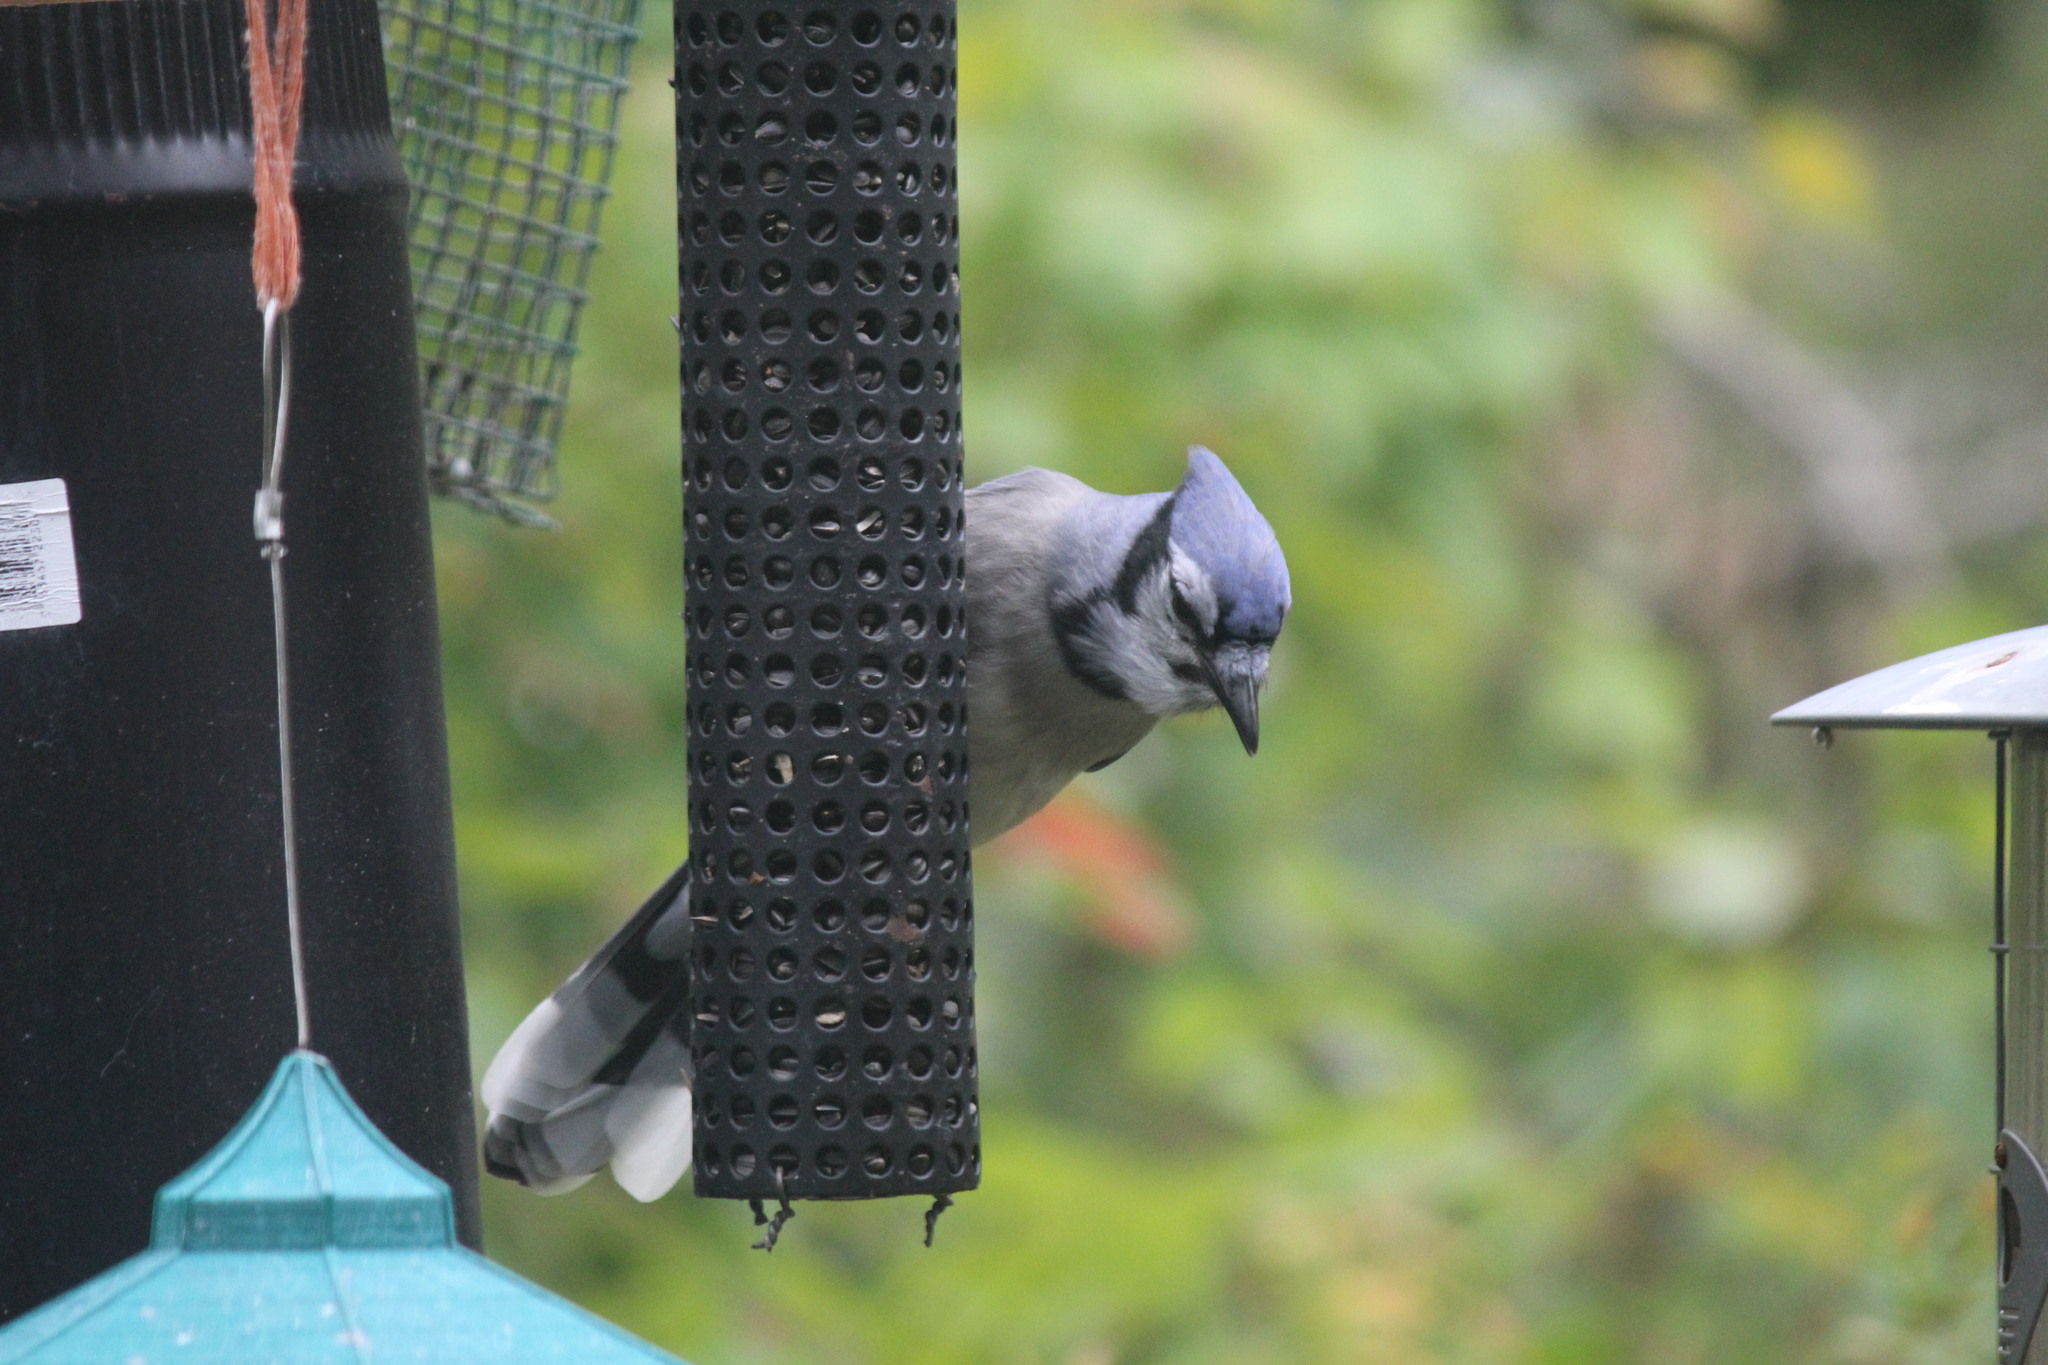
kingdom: Animalia
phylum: Chordata
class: Aves
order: Passeriformes
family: Corvidae
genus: Cyanocitta
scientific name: Cyanocitta cristata
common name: Blue jay
